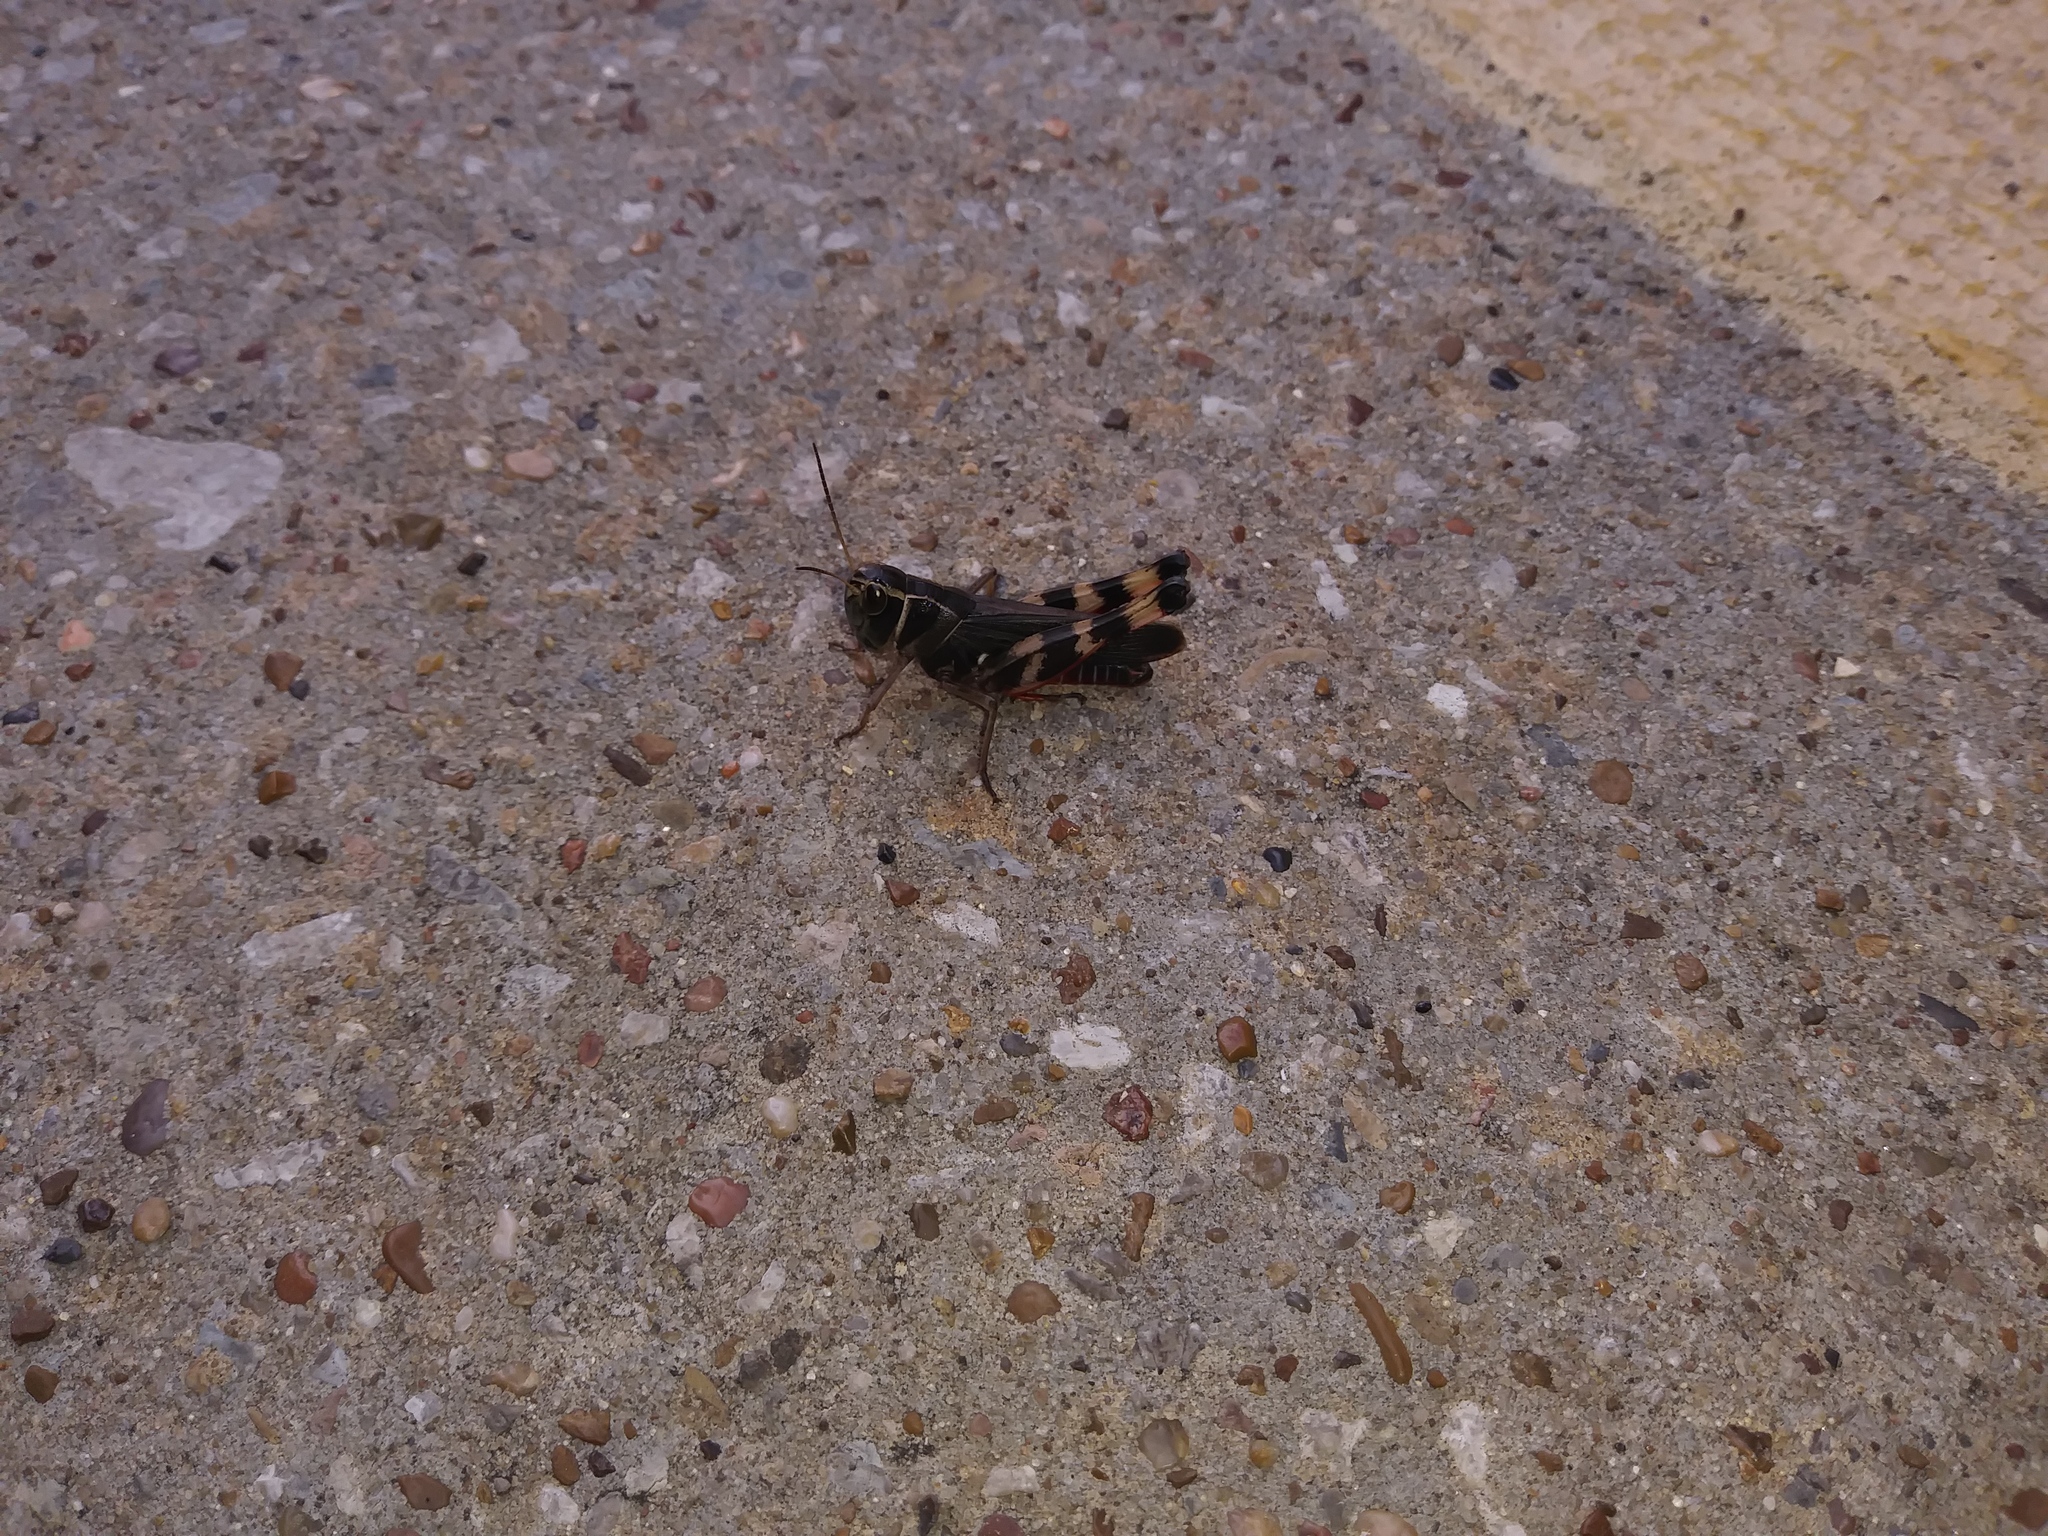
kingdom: Animalia
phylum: Arthropoda
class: Insecta
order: Orthoptera
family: Acrididae
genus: Boopedon
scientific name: Boopedon gracile
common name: Graceful range grasshopper
